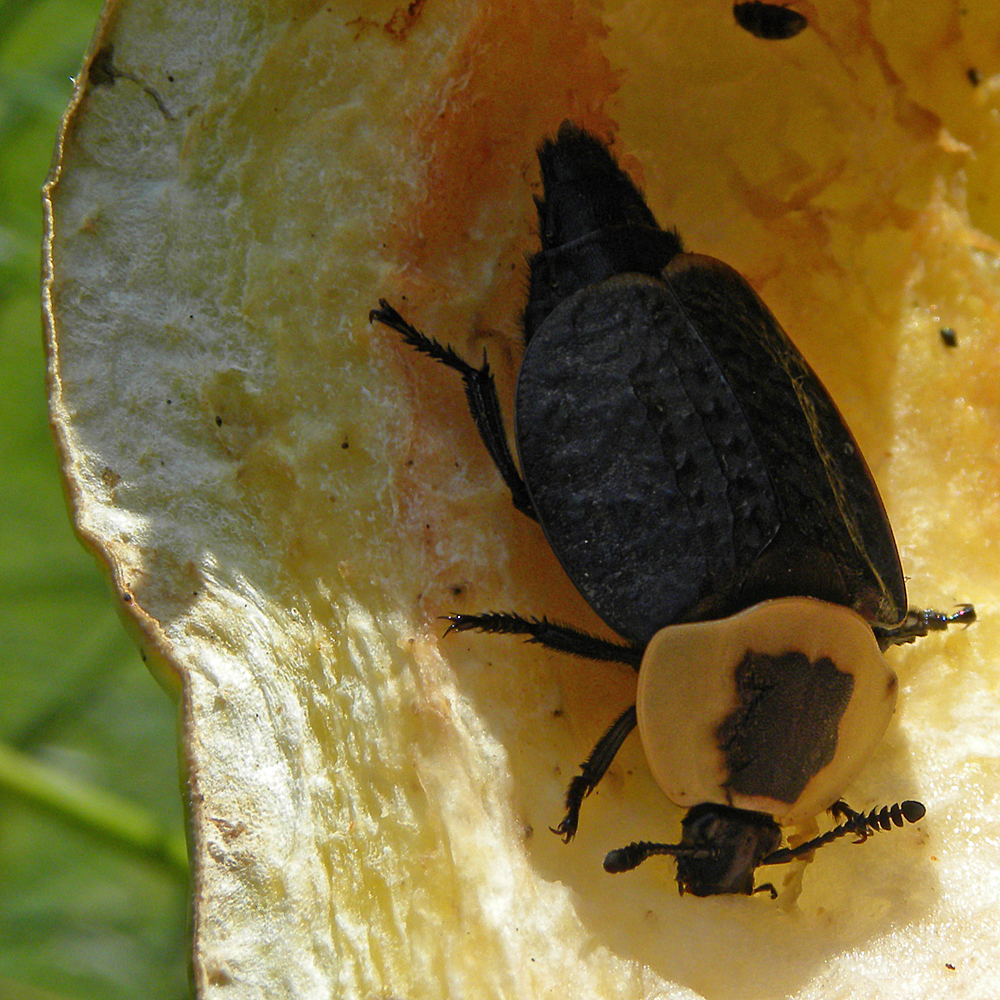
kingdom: Animalia
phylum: Arthropoda
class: Insecta
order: Coleoptera
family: Staphylinidae
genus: Necrophila
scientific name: Necrophila americana
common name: American carrion beetle
